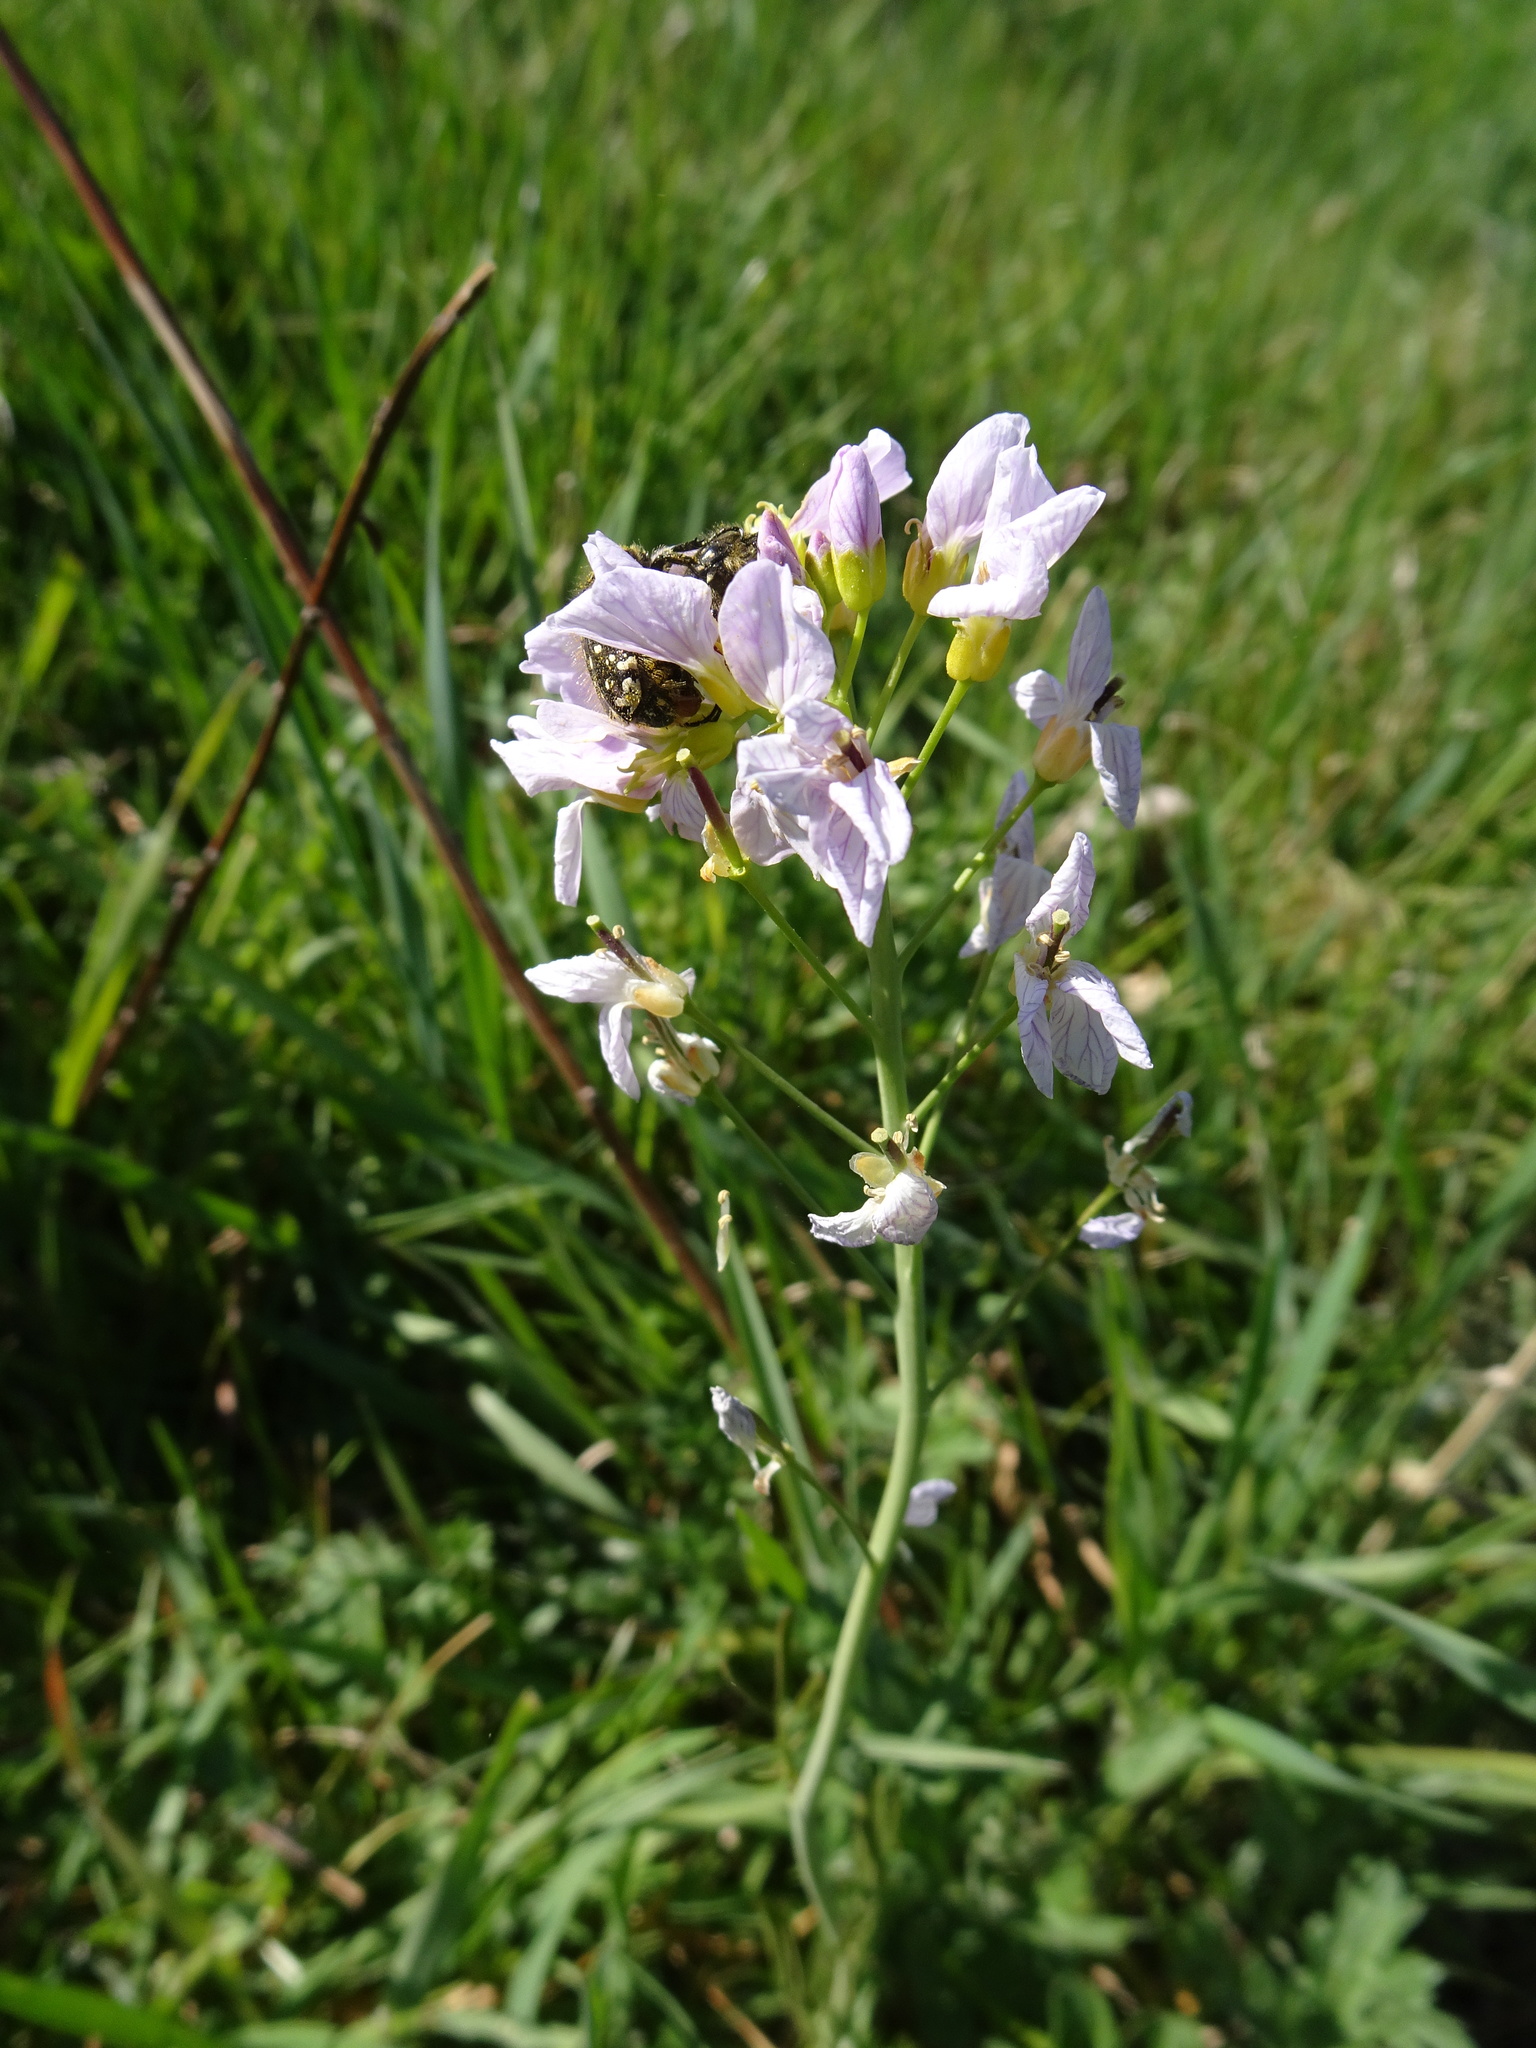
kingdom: Plantae
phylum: Tracheophyta
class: Magnoliopsida
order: Brassicales
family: Brassicaceae
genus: Cardamine
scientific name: Cardamine pratensis
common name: Cuckoo flower
